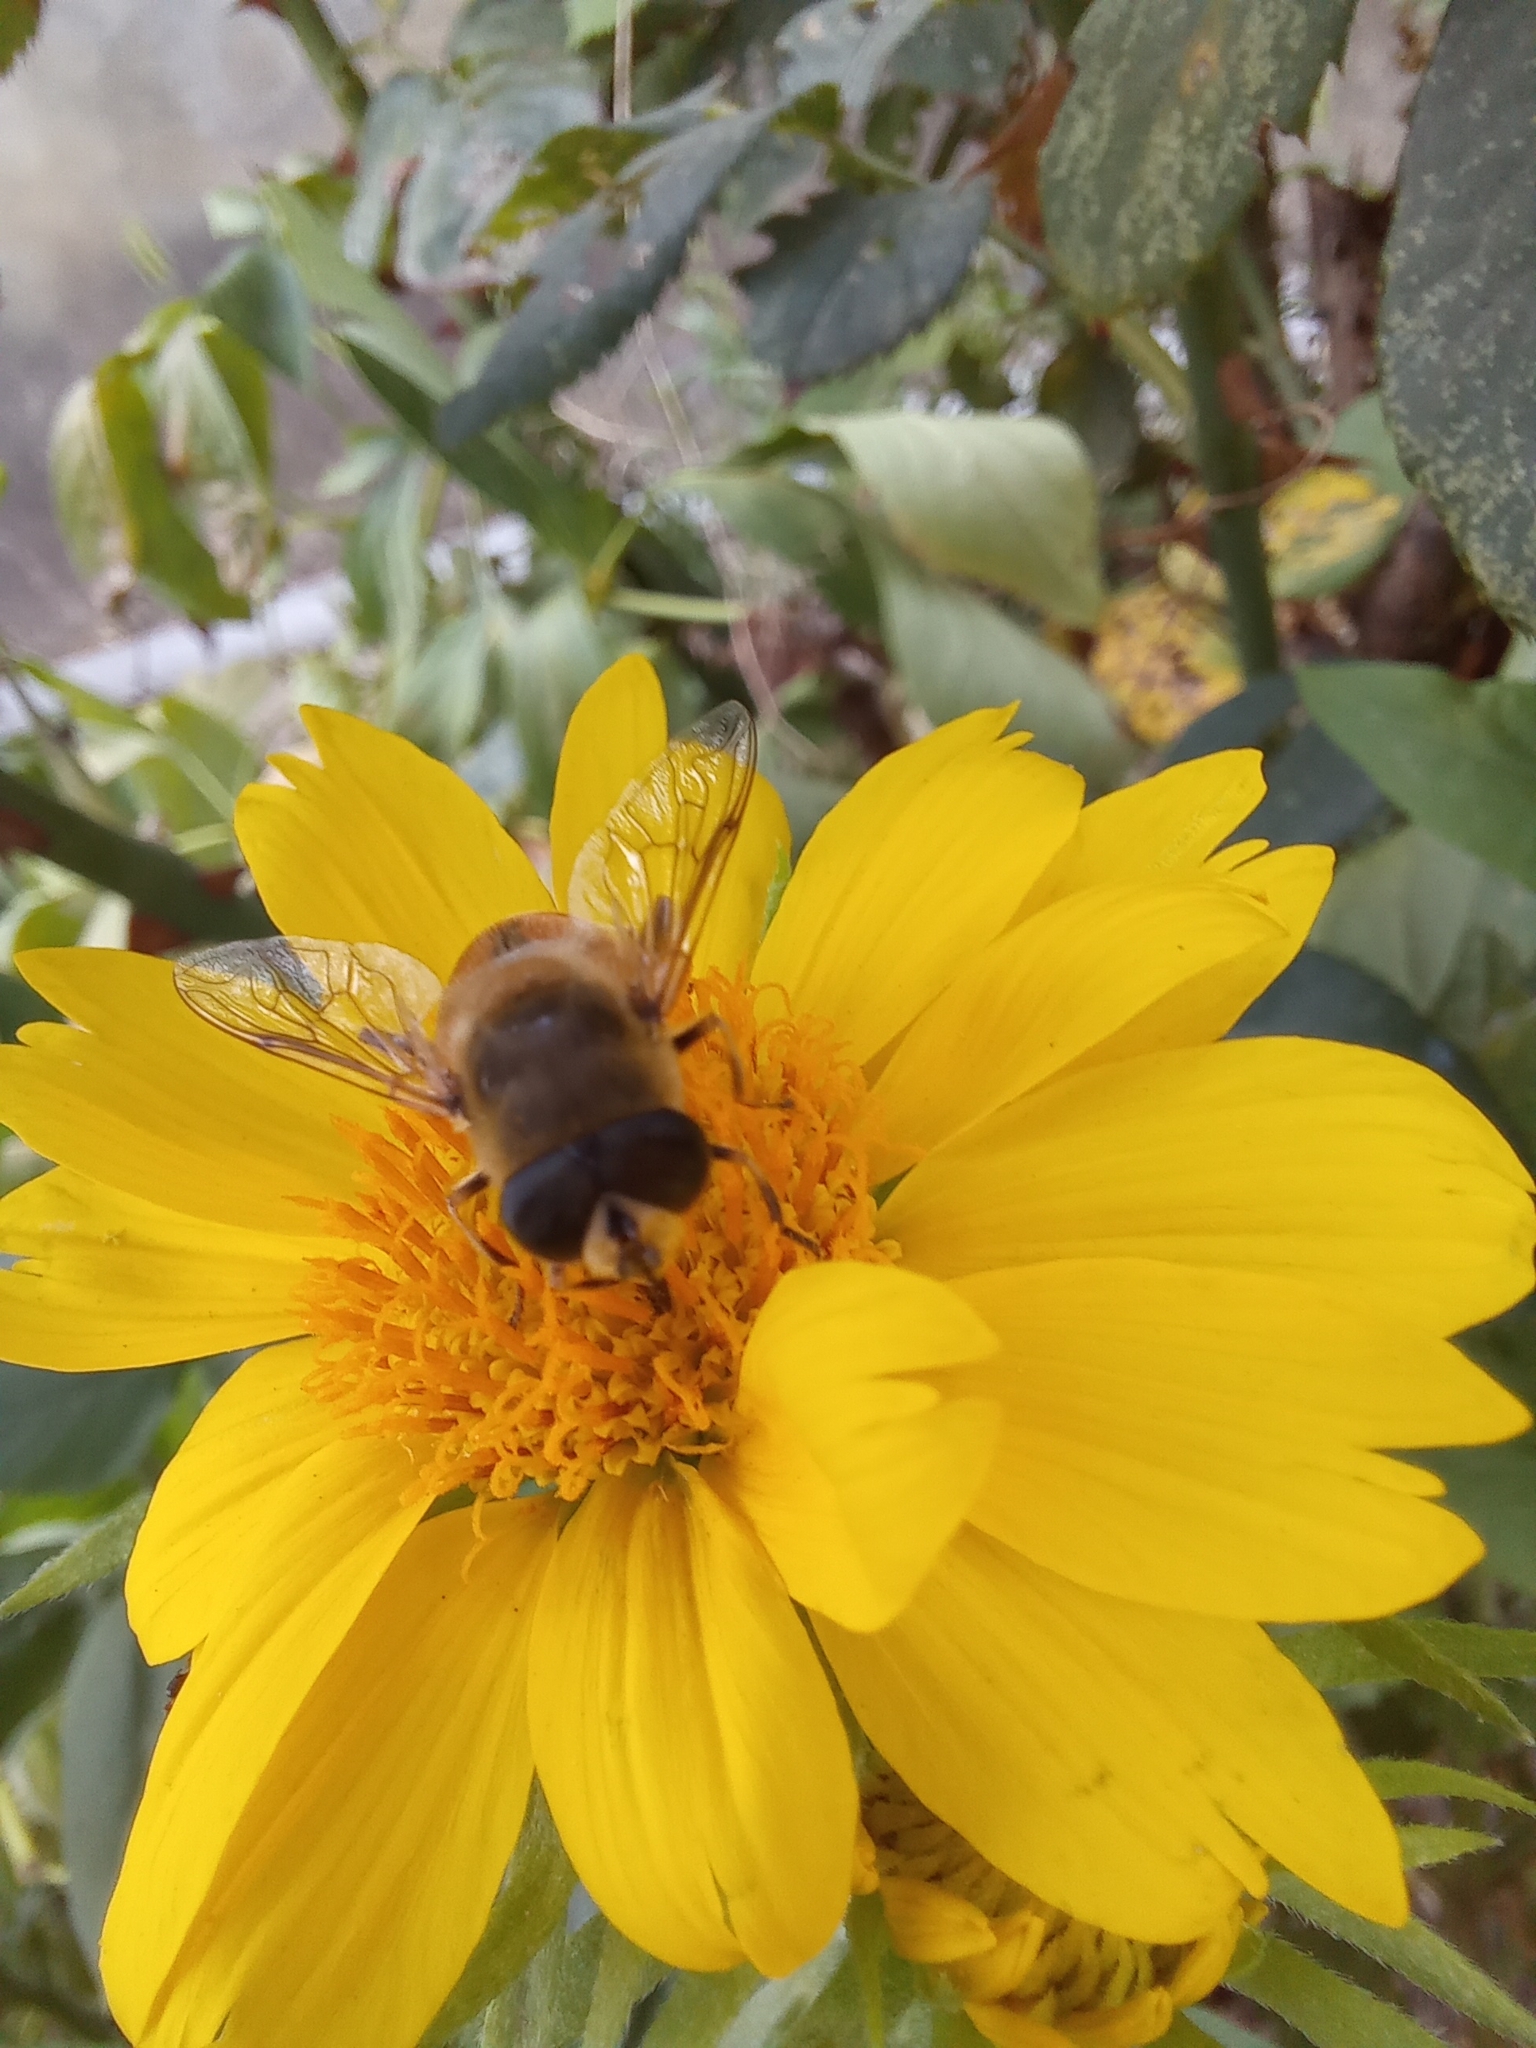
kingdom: Animalia
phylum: Arthropoda
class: Insecta
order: Diptera
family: Syrphidae
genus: Eristalis
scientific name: Eristalis tenax
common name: Drone fly
